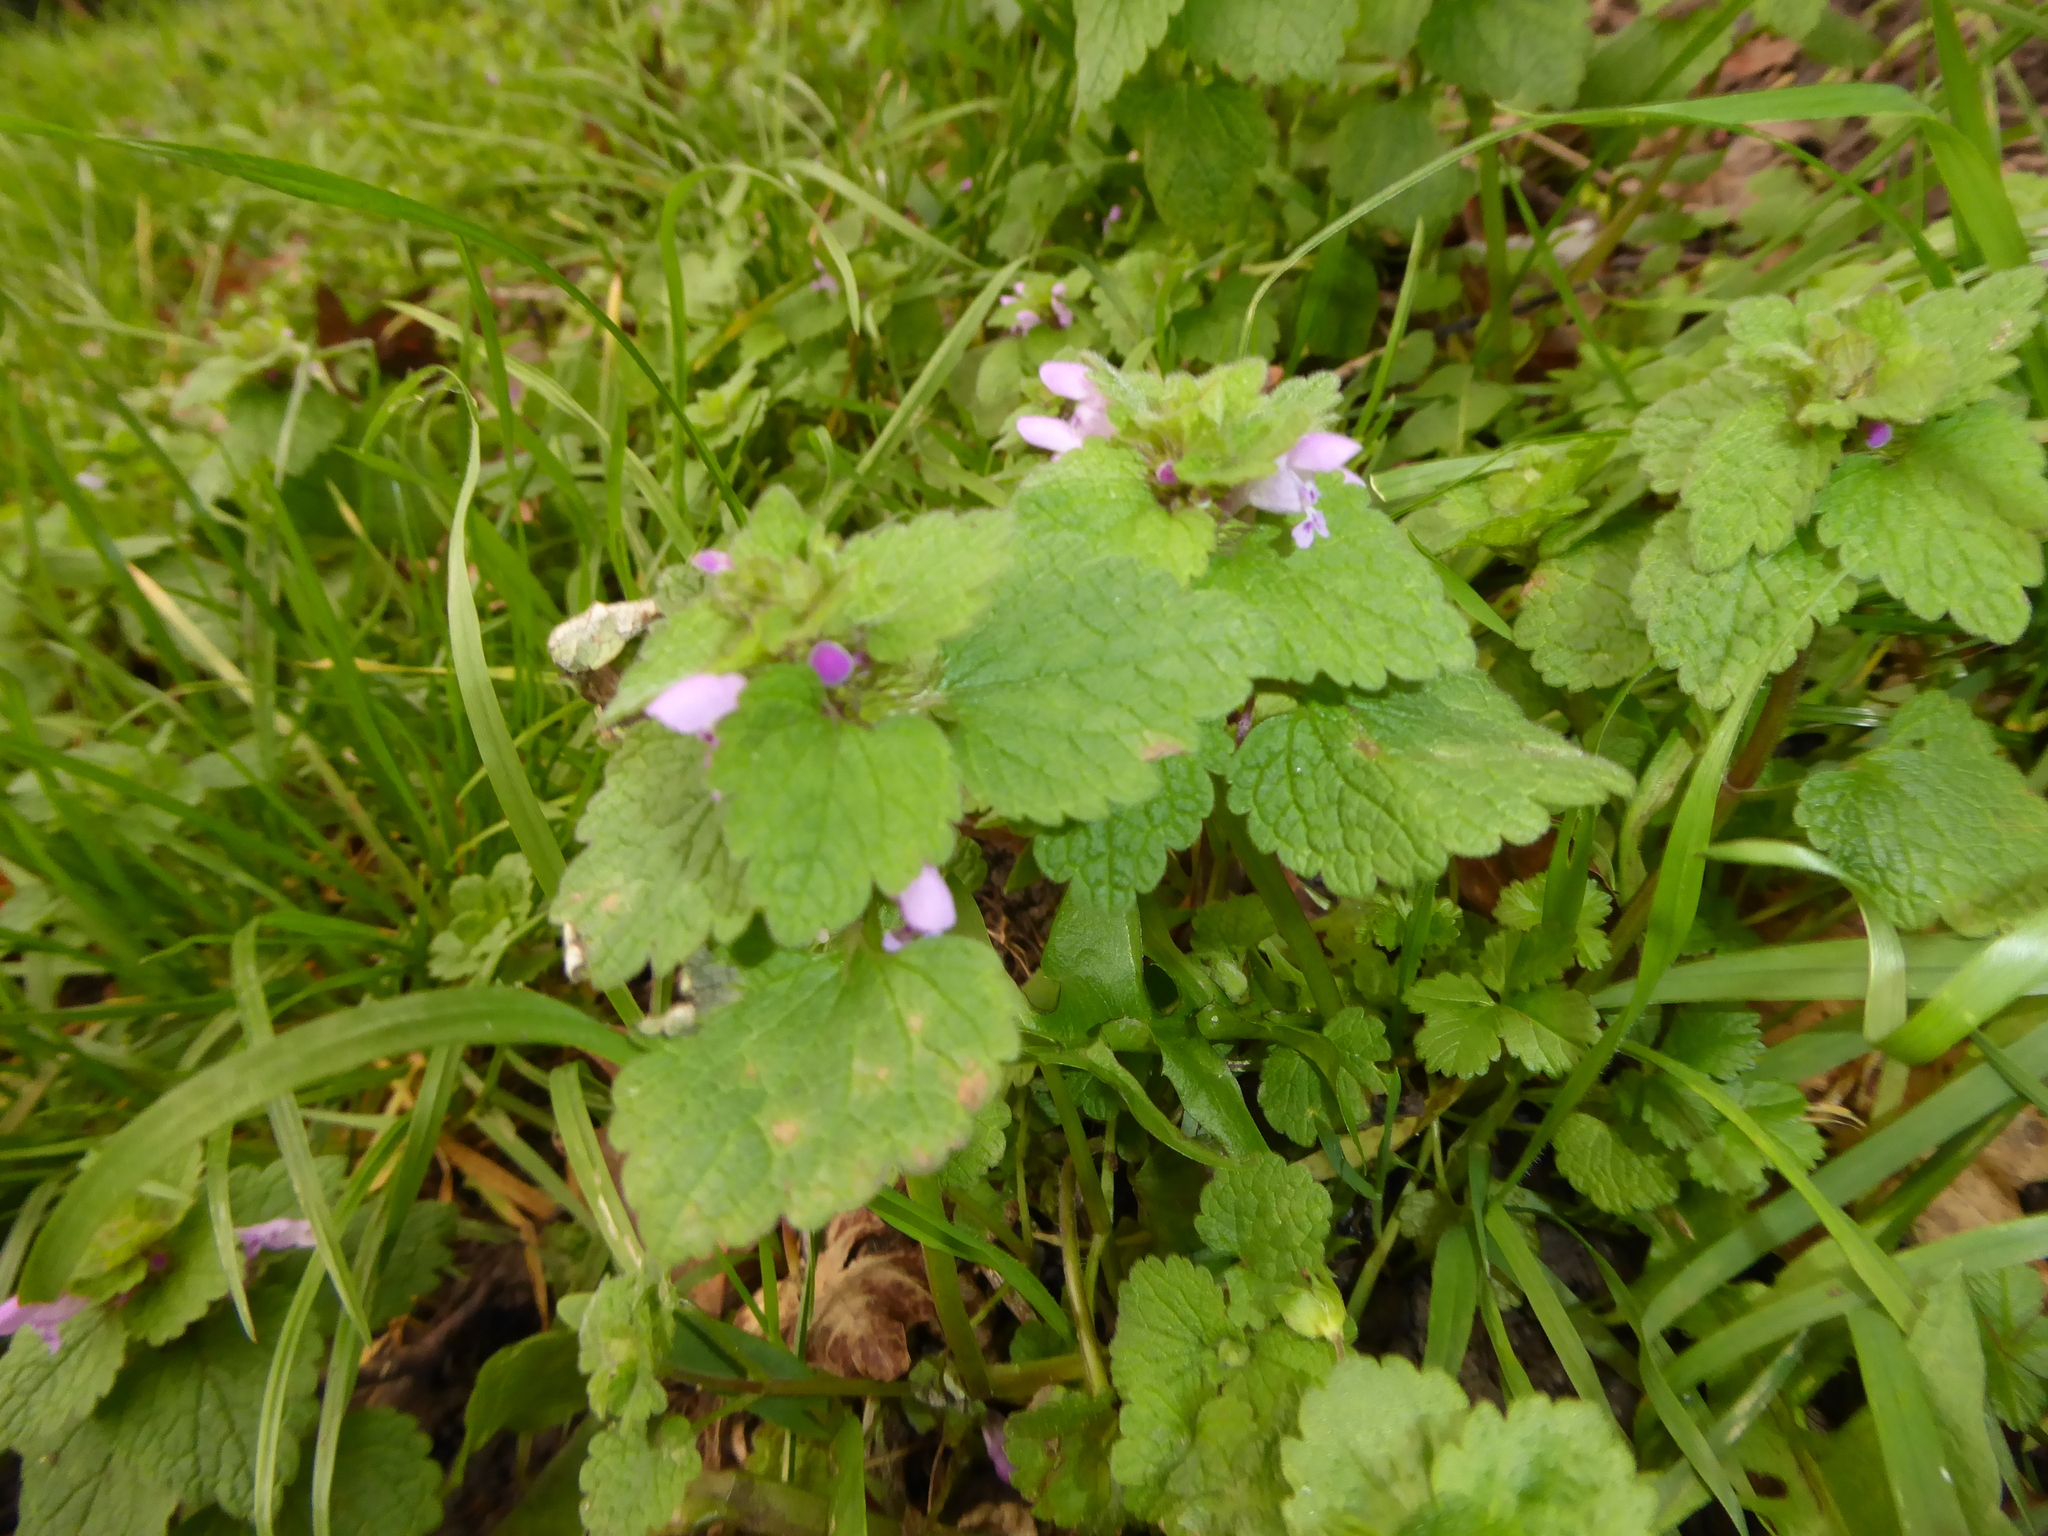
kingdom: Plantae
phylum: Tracheophyta
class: Magnoliopsida
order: Lamiales
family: Lamiaceae
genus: Lamium
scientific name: Lamium purpureum
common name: Red dead-nettle
